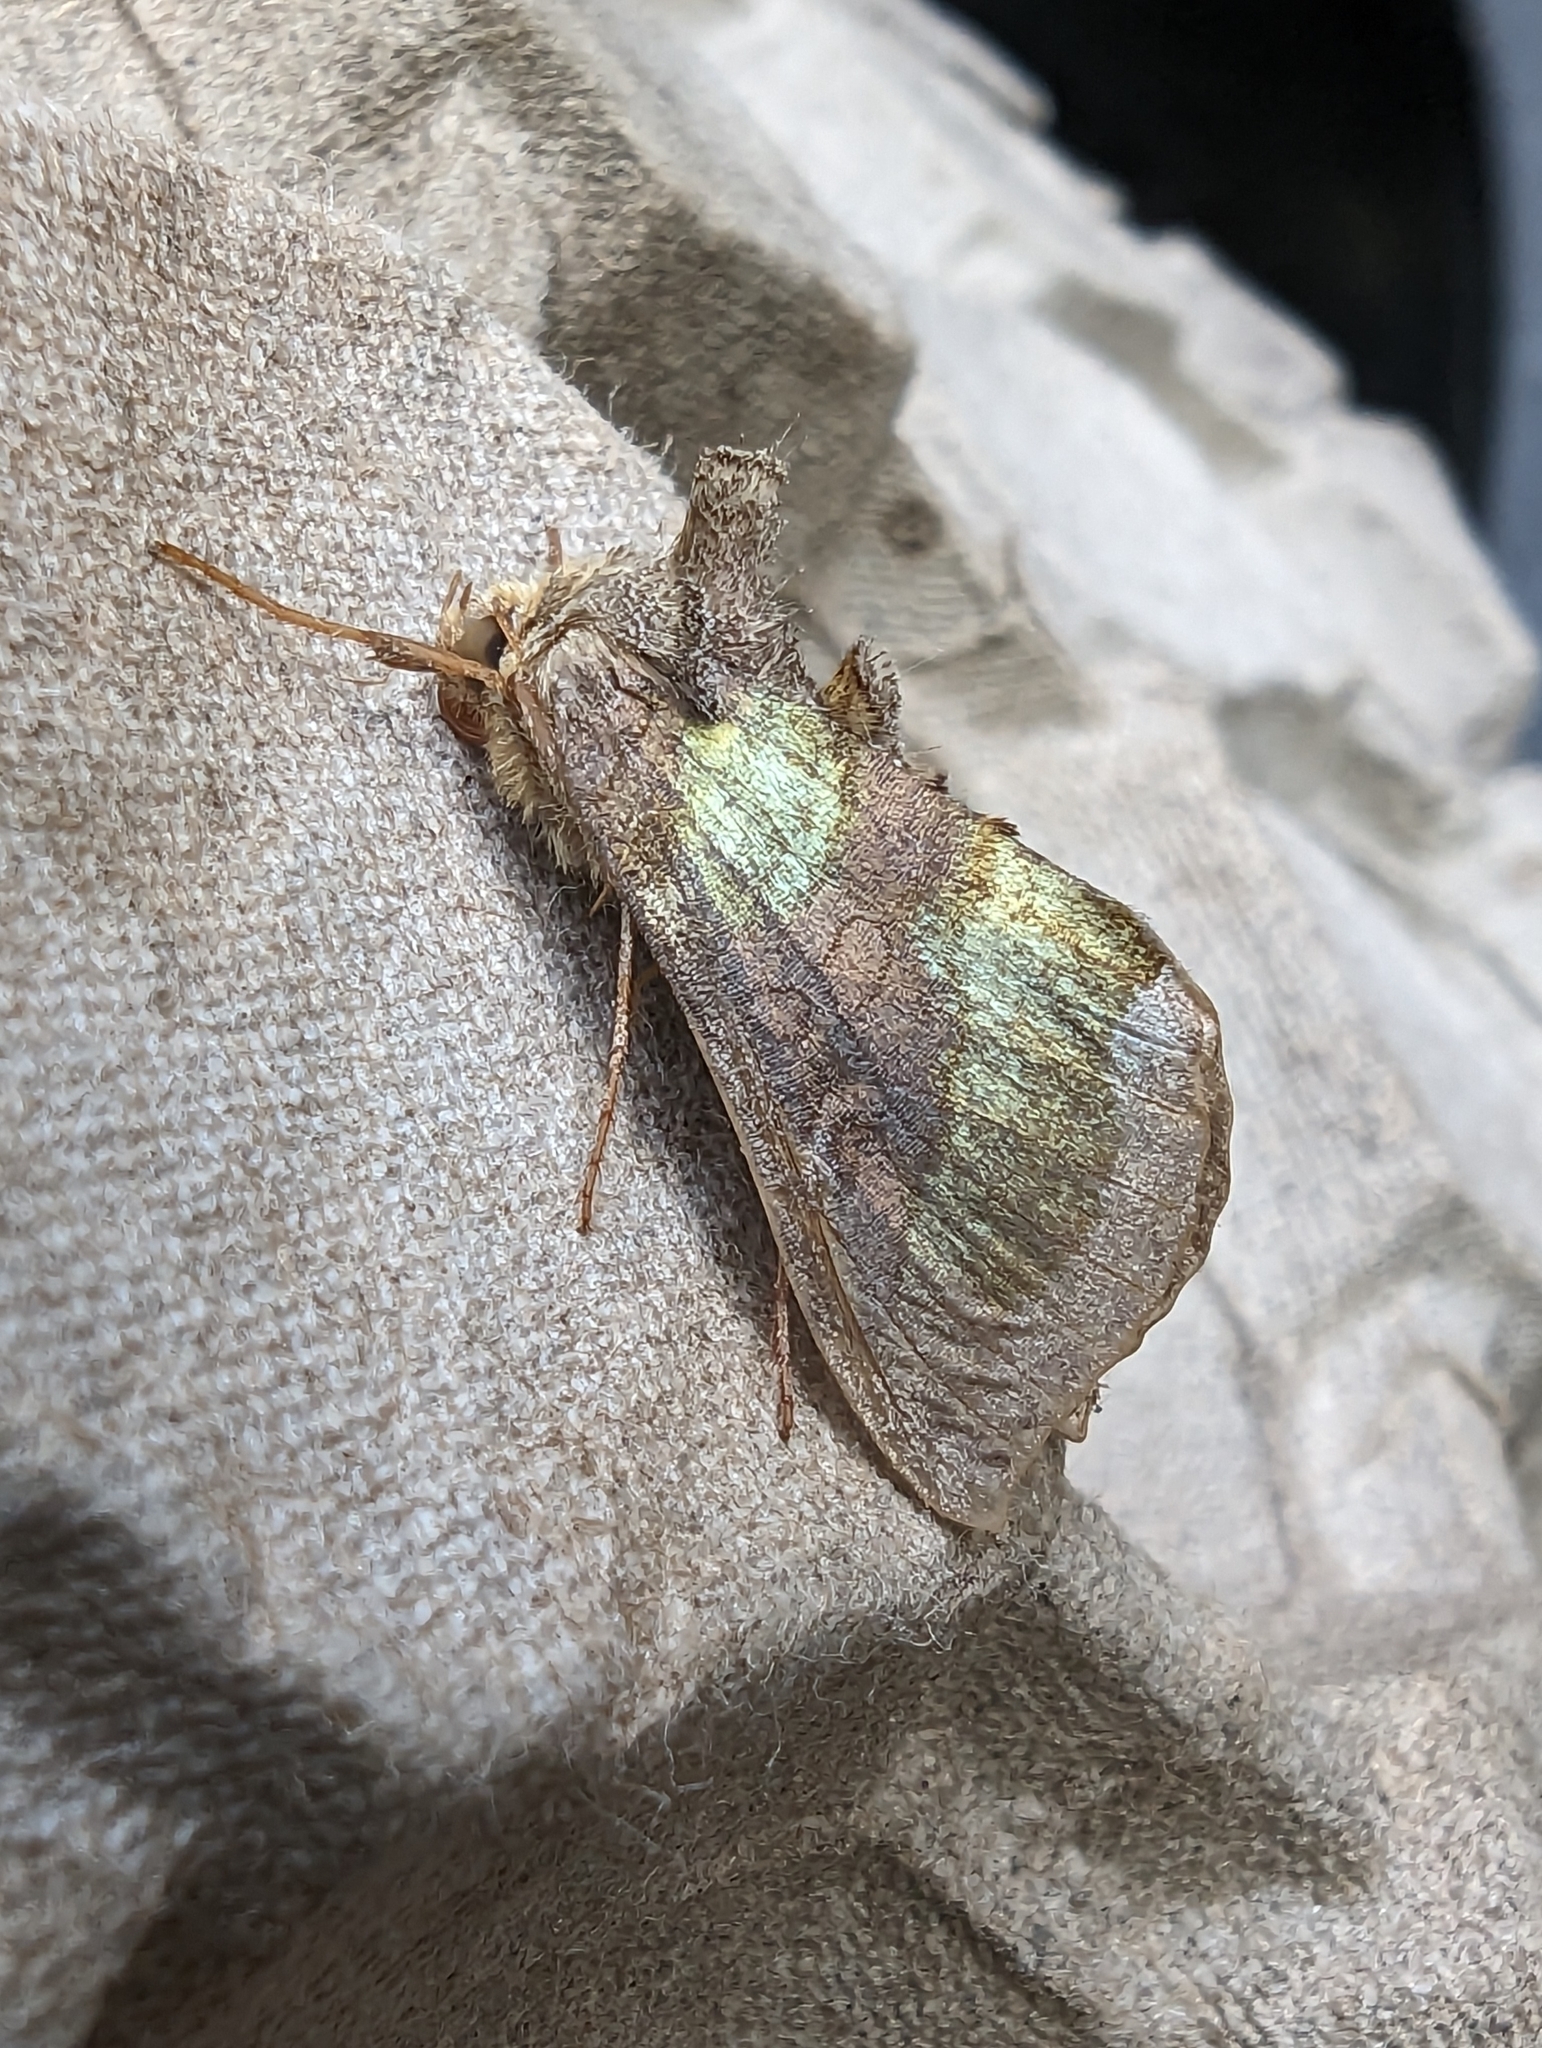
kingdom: Animalia
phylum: Arthropoda
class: Insecta
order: Lepidoptera
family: Noctuidae
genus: Diachrysia
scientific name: Diachrysia chrysitis
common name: Burnished brass
